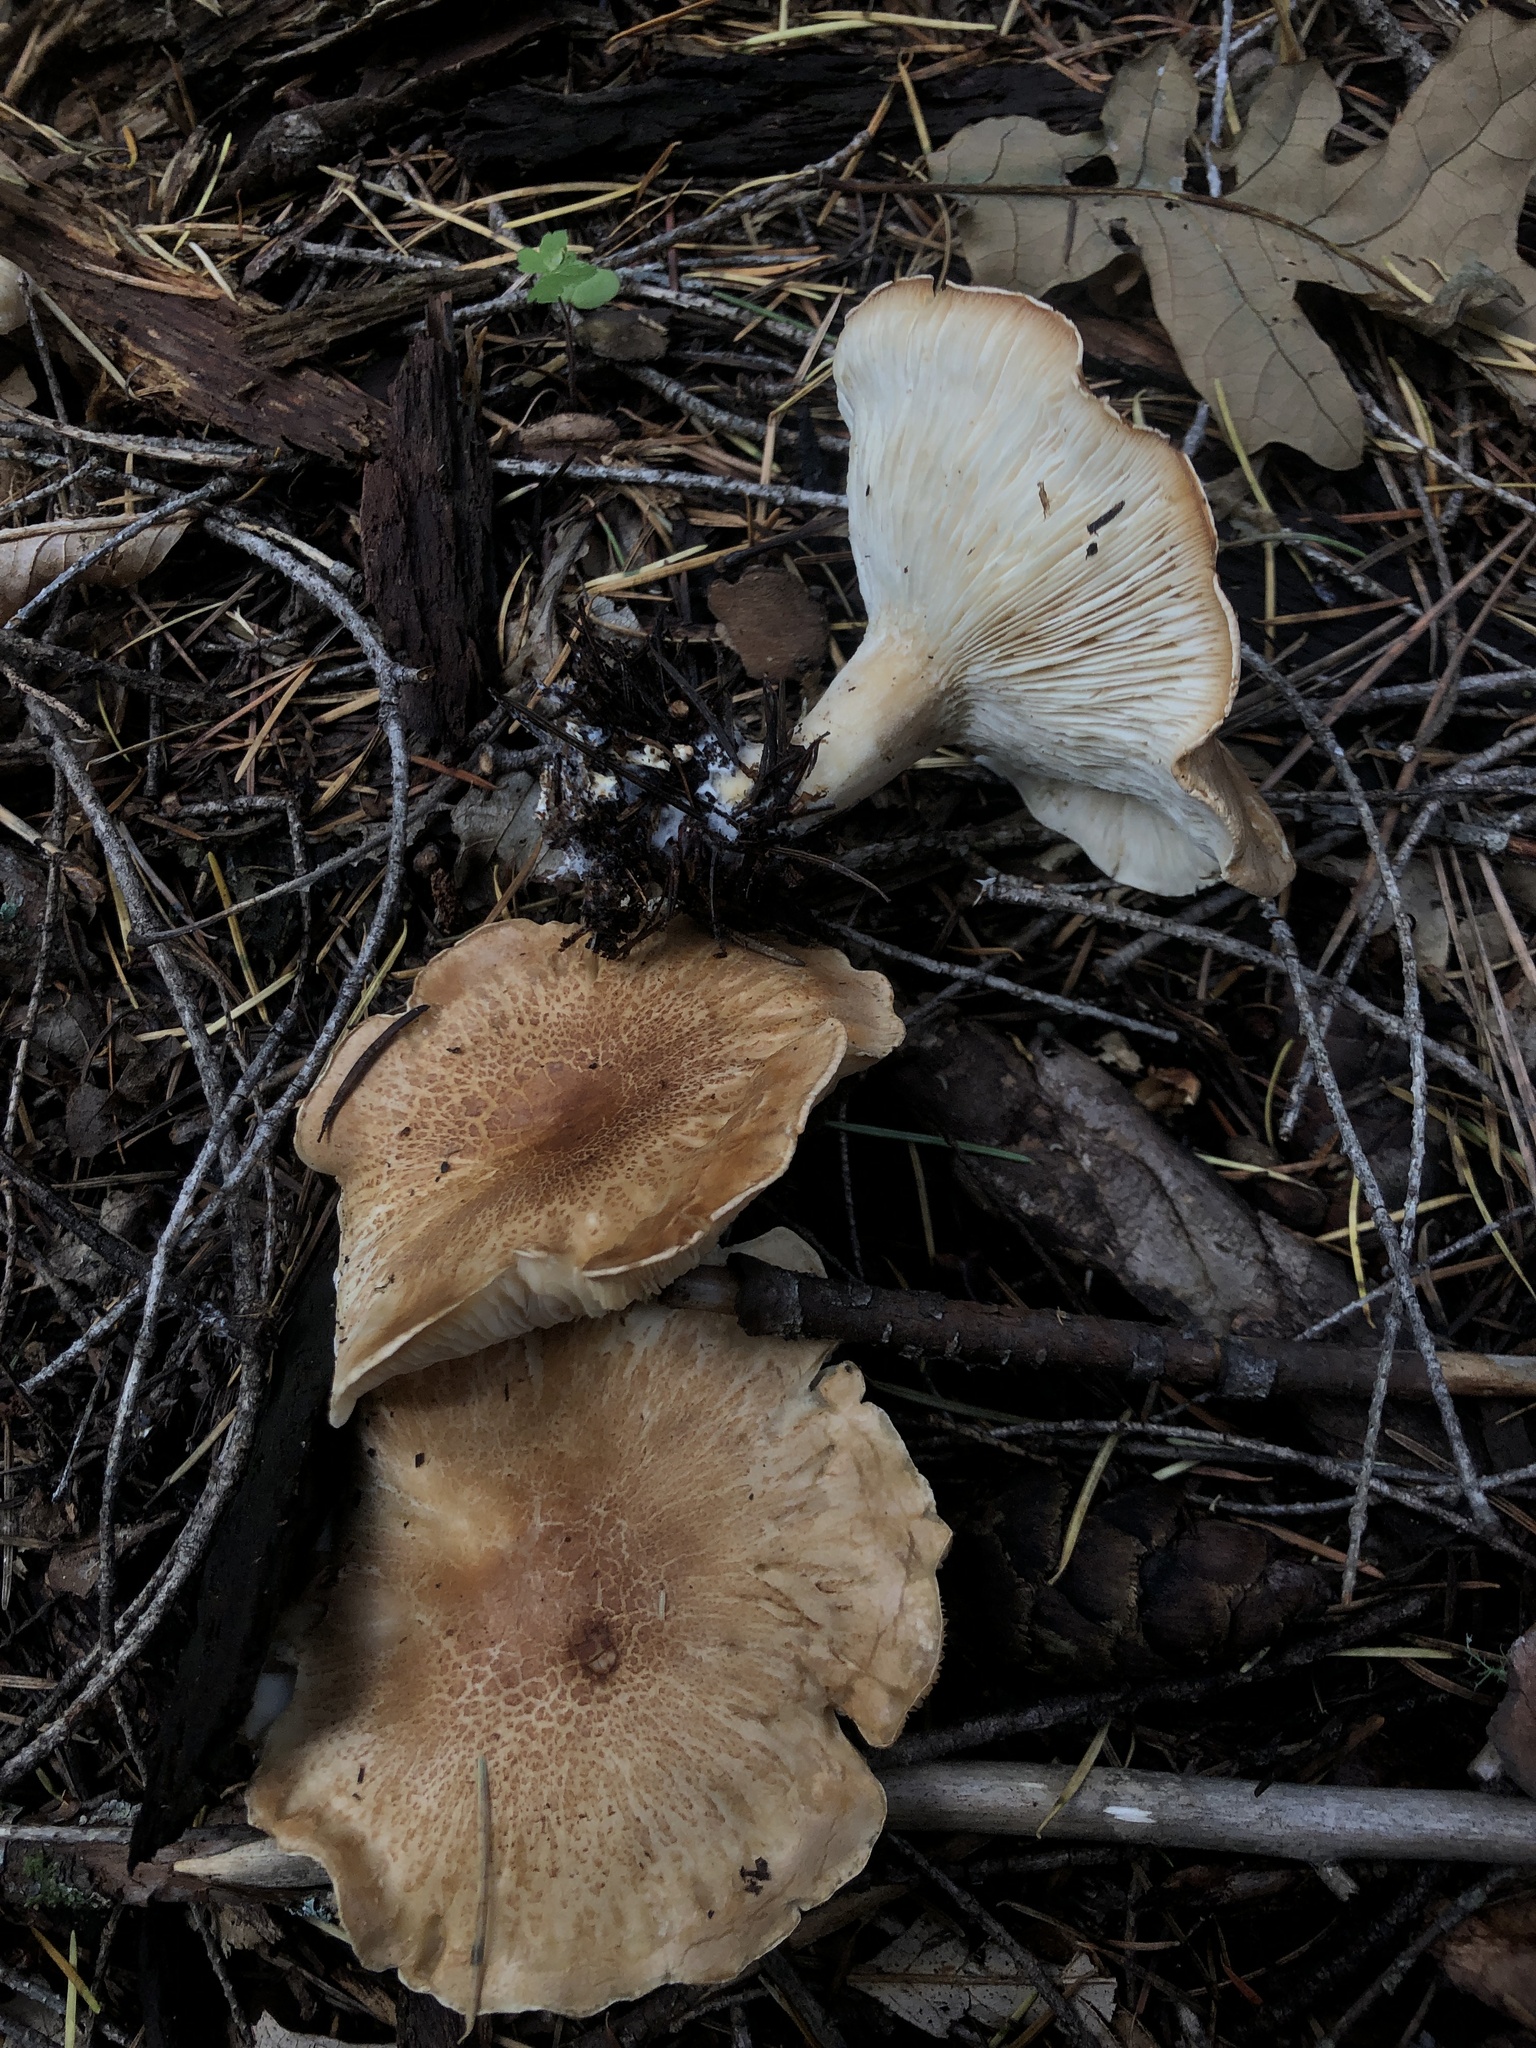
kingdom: Fungi
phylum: Basidiomycota
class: Agaricomycetes
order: Agaricales
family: Tricholomataceae
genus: Leucopaxillus
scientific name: Leucopaxillus gentianeus
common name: Bitter funnel
